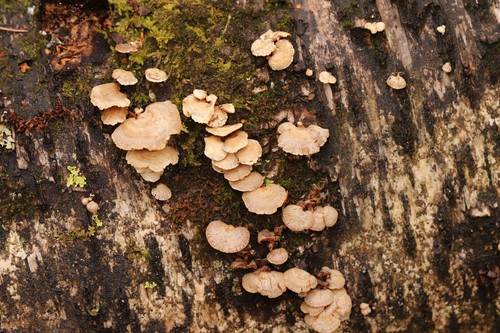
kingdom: Fungi
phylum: Basidiomycota
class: Agaricomycetes
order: Agaricales
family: Mycenaceae
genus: Panellus
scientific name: Panellus stipticus
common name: Bitter oysterling
